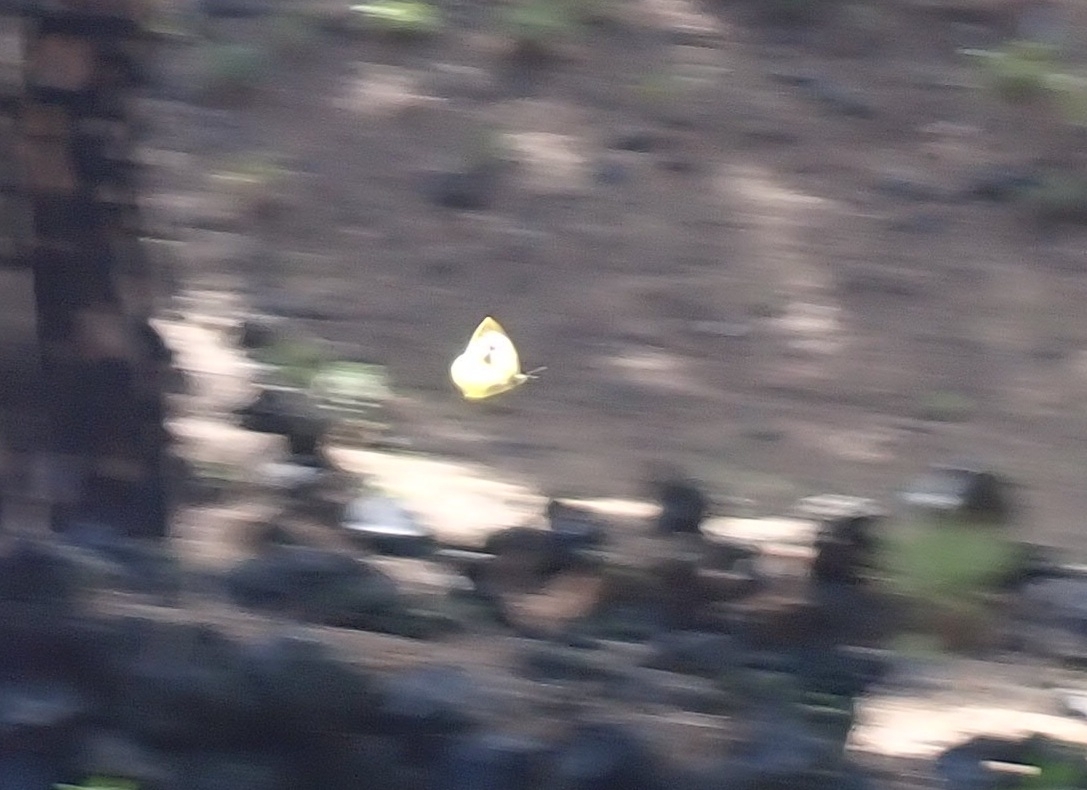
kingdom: Animalia
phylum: Arthropoda
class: Insecta
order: Lepidoptera
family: Pieridae
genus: Pieris
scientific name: Pieris cheiranthi
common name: Canary islands large white
